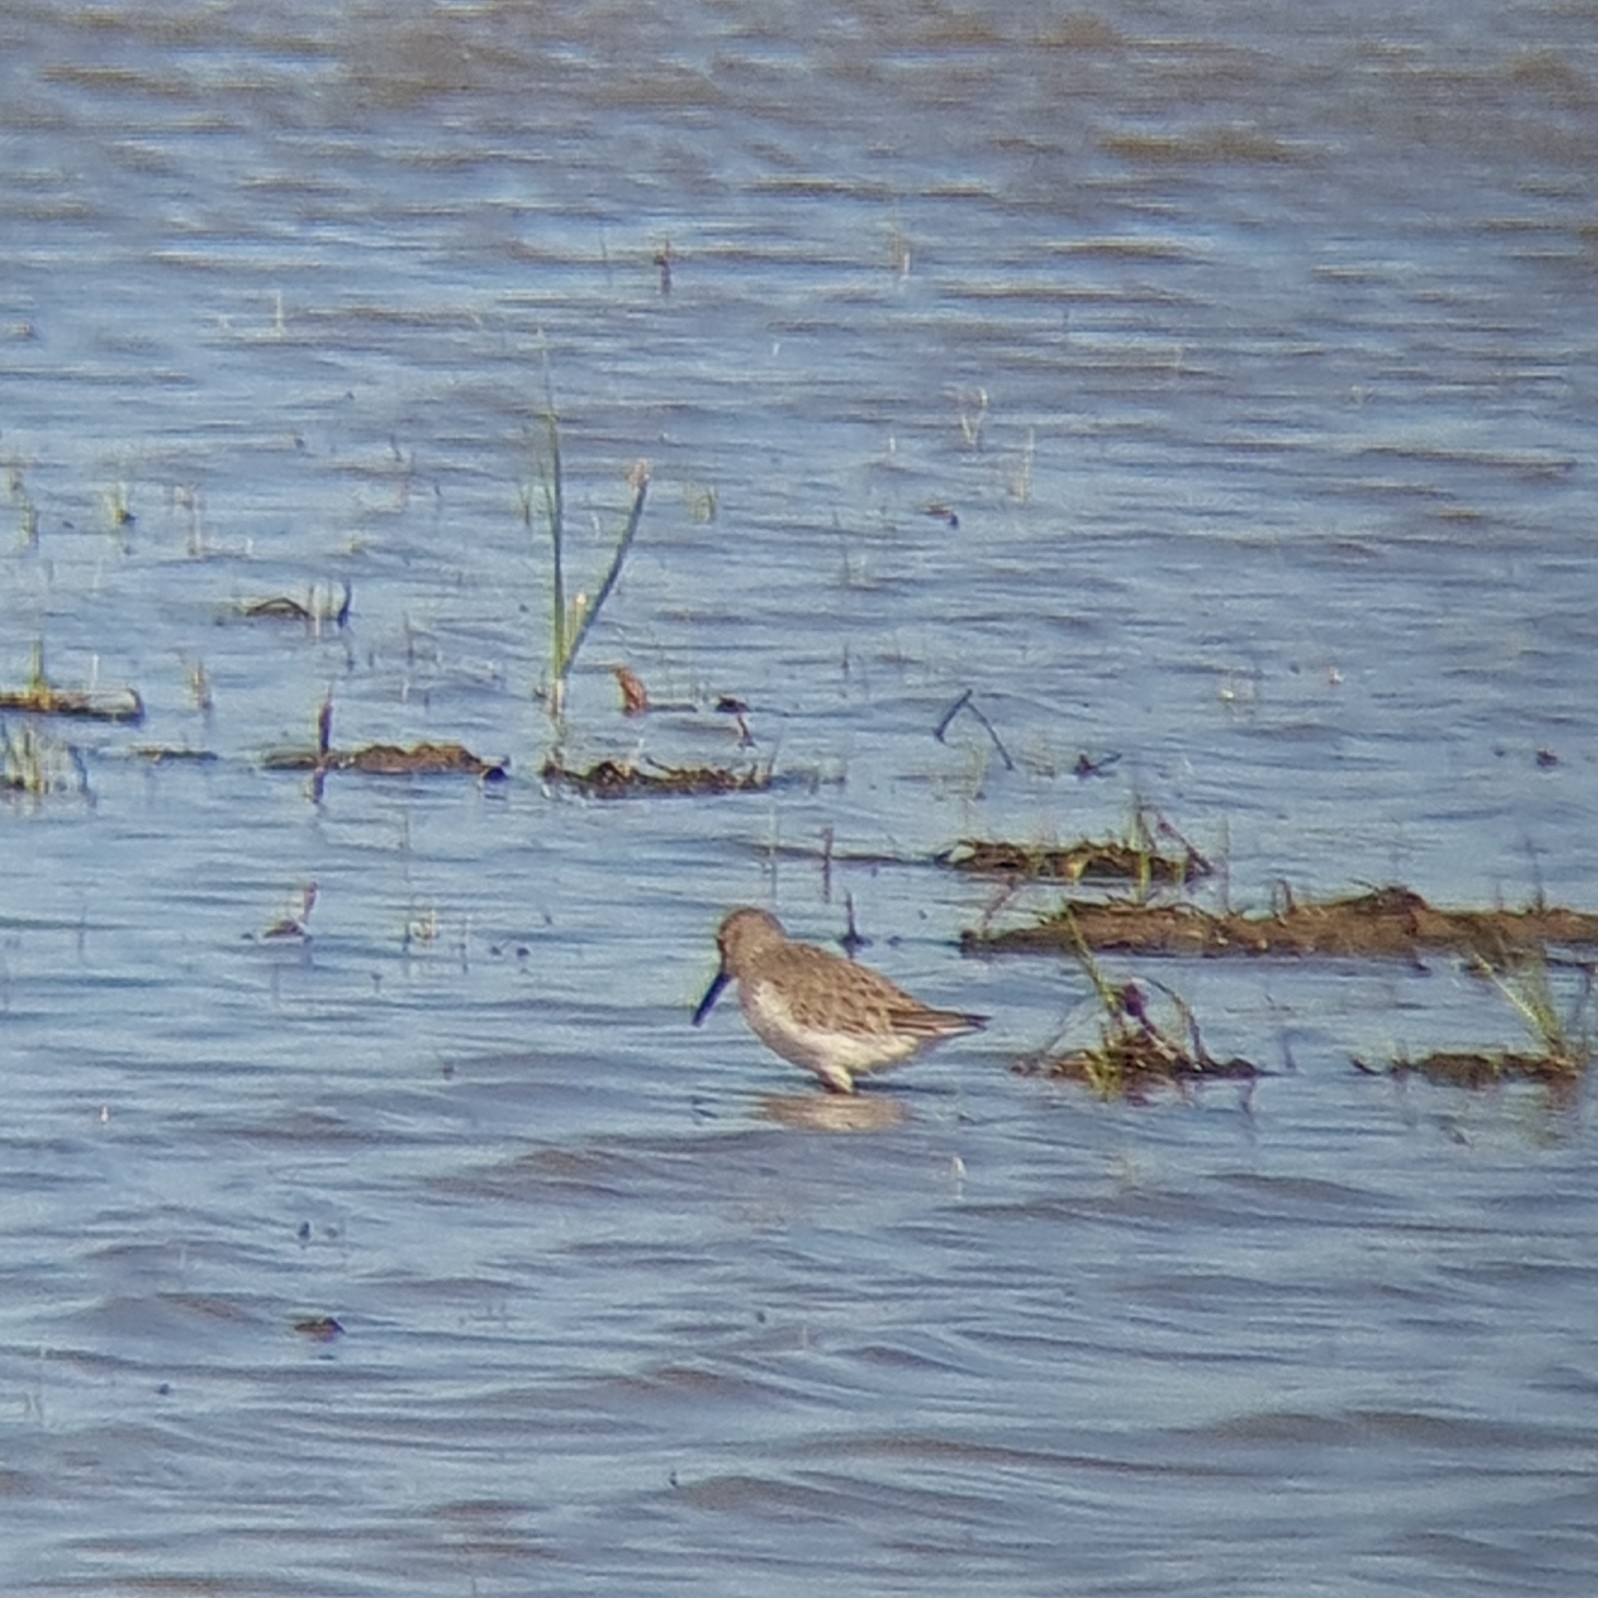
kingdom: Animalia
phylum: Chordata
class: Aves
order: Charadriiformes
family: Scolopacidae
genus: Calidris
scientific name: Calidris alpina
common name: Dunlin
